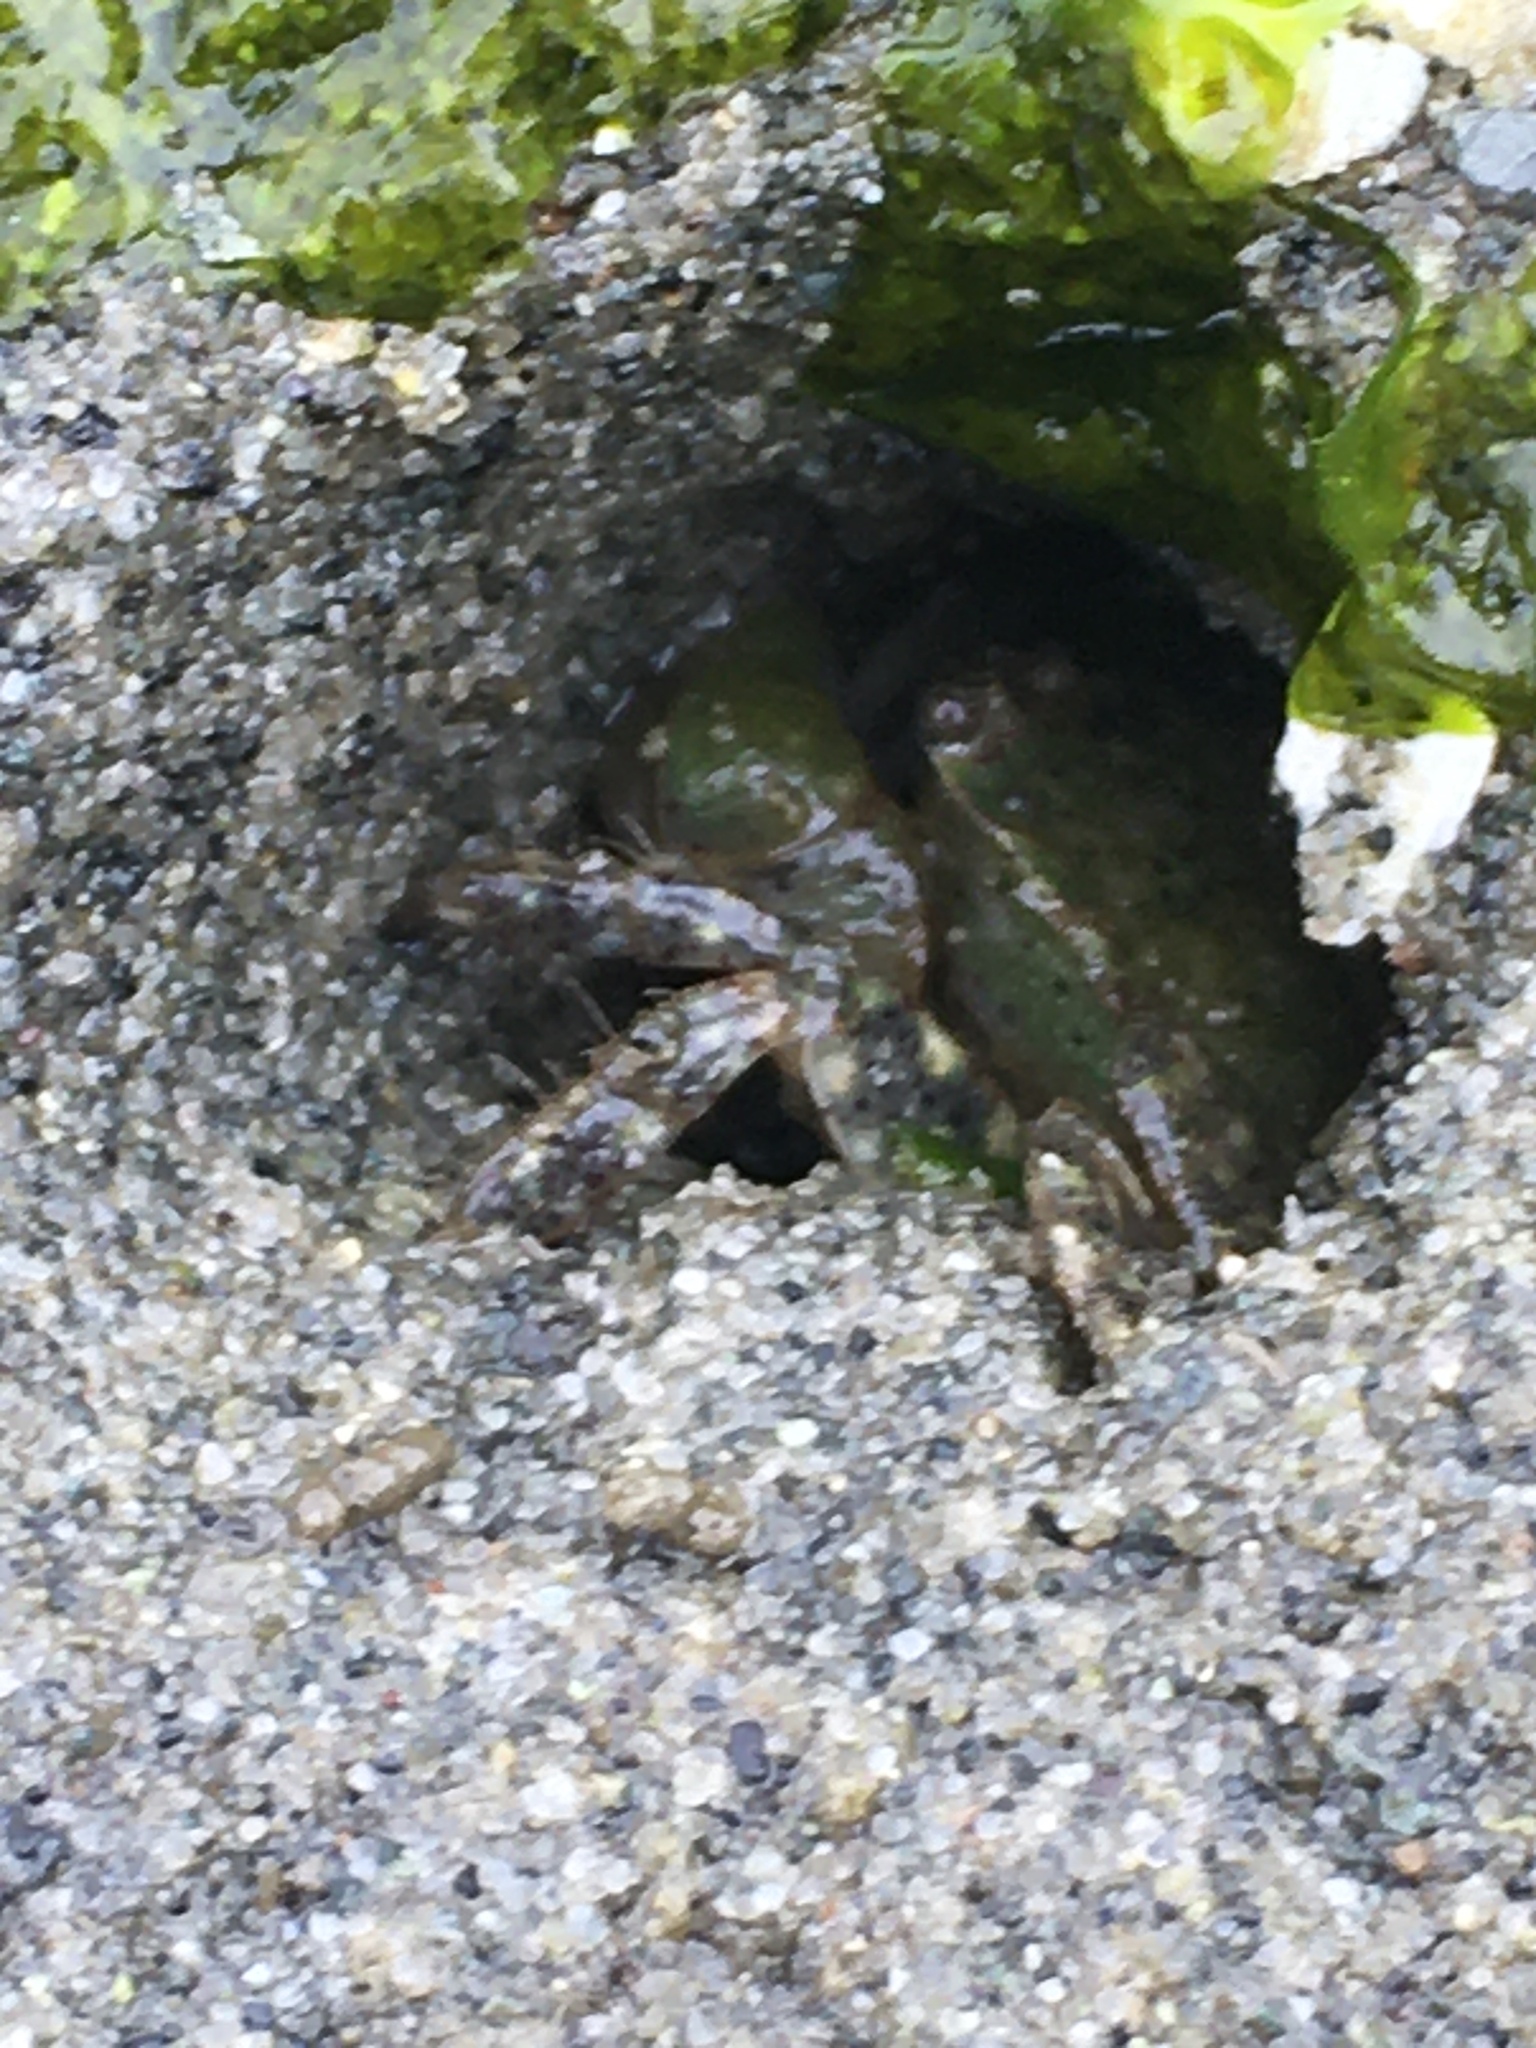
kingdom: Animalia
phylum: Arthropoda
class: Malacostraca
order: Decapoda
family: Varunidae
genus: Hemigrapsus
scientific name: Hemigrapsus oregonensis
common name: Yellow shore crab
